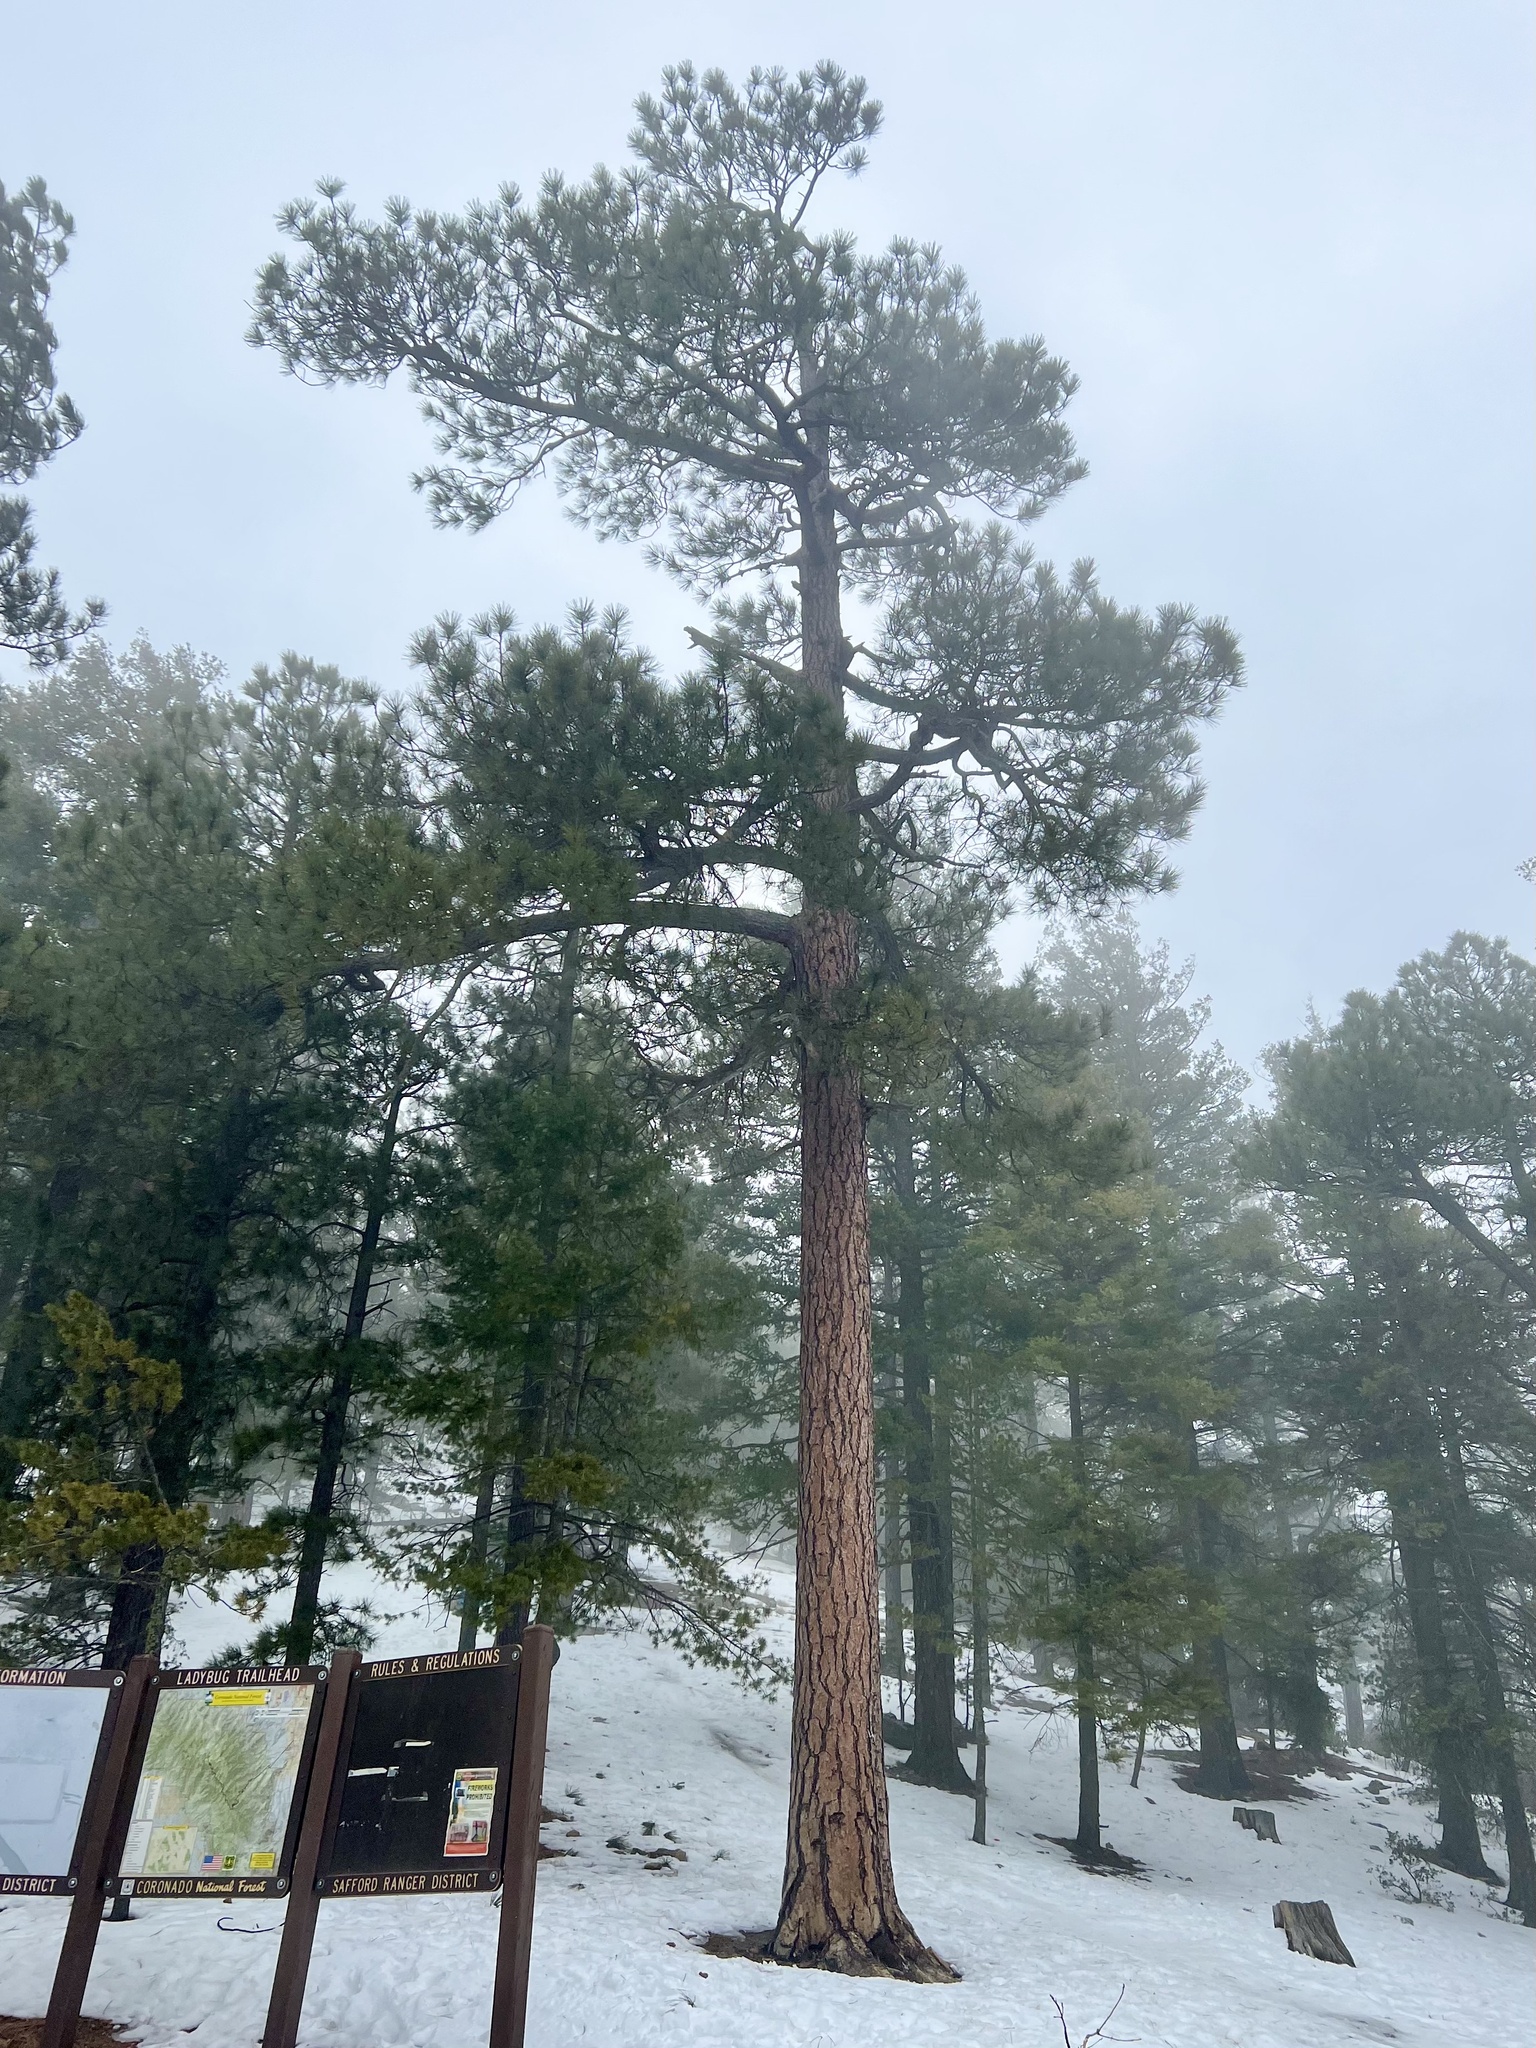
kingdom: Plantae
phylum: Tracheophyta
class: Pinopsida
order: Pinales
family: Pinaceae
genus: Pinus
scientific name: Pinus ponderosa
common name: Western yellow-pine
